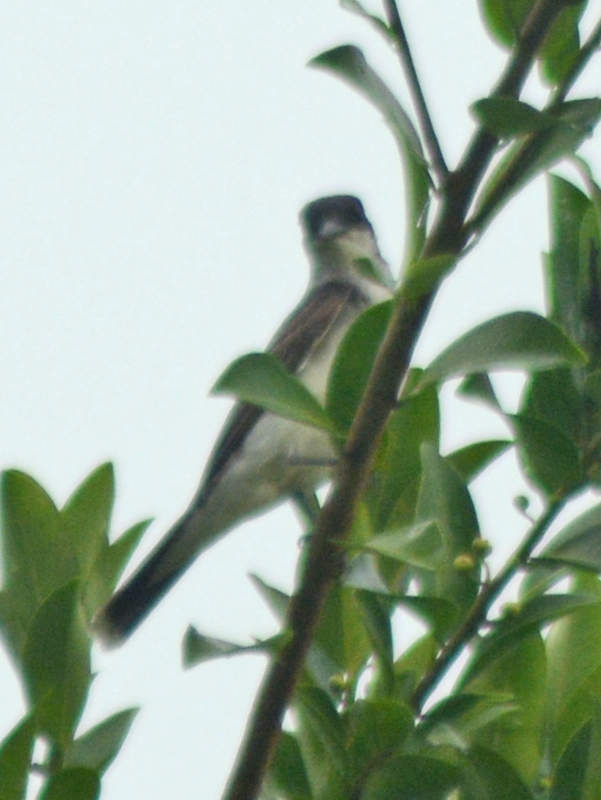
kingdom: Animalia
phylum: Chordata
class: Aves
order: Passeriformes
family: Tyrannidae
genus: Tyrannus
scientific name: Tyrannus tyrannus
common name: Eastern kingbird
